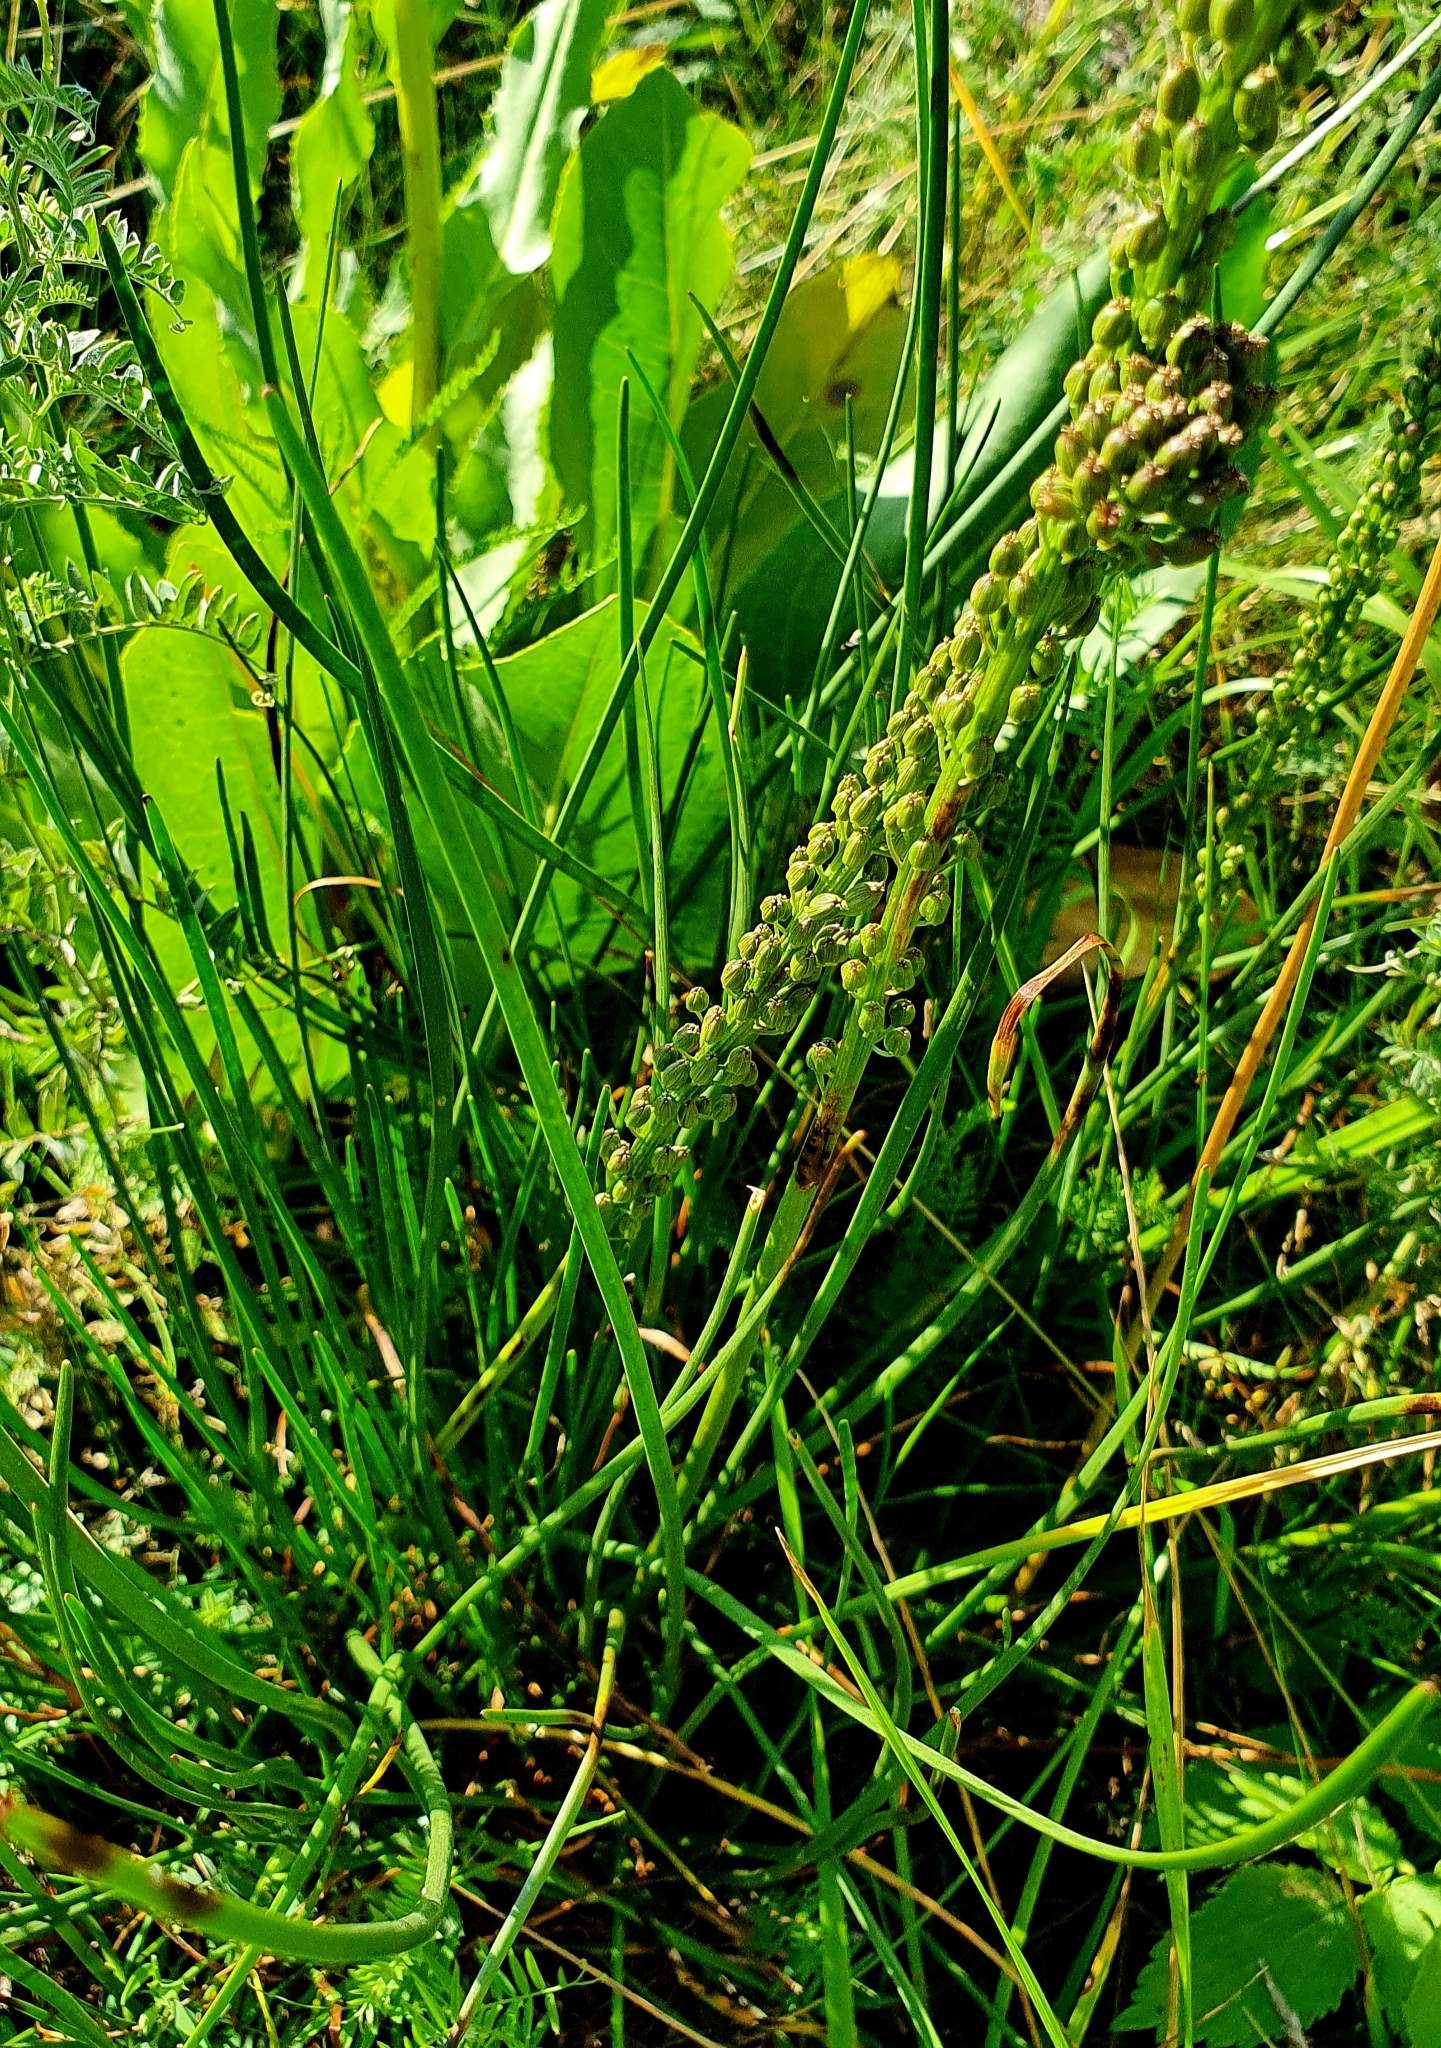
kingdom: Plantae
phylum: Tracheophyta
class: Liliopsida
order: Alismatales
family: Juncaginaceae
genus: Triglochin
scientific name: Triglochin maritima
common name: Sea arrowgrass
